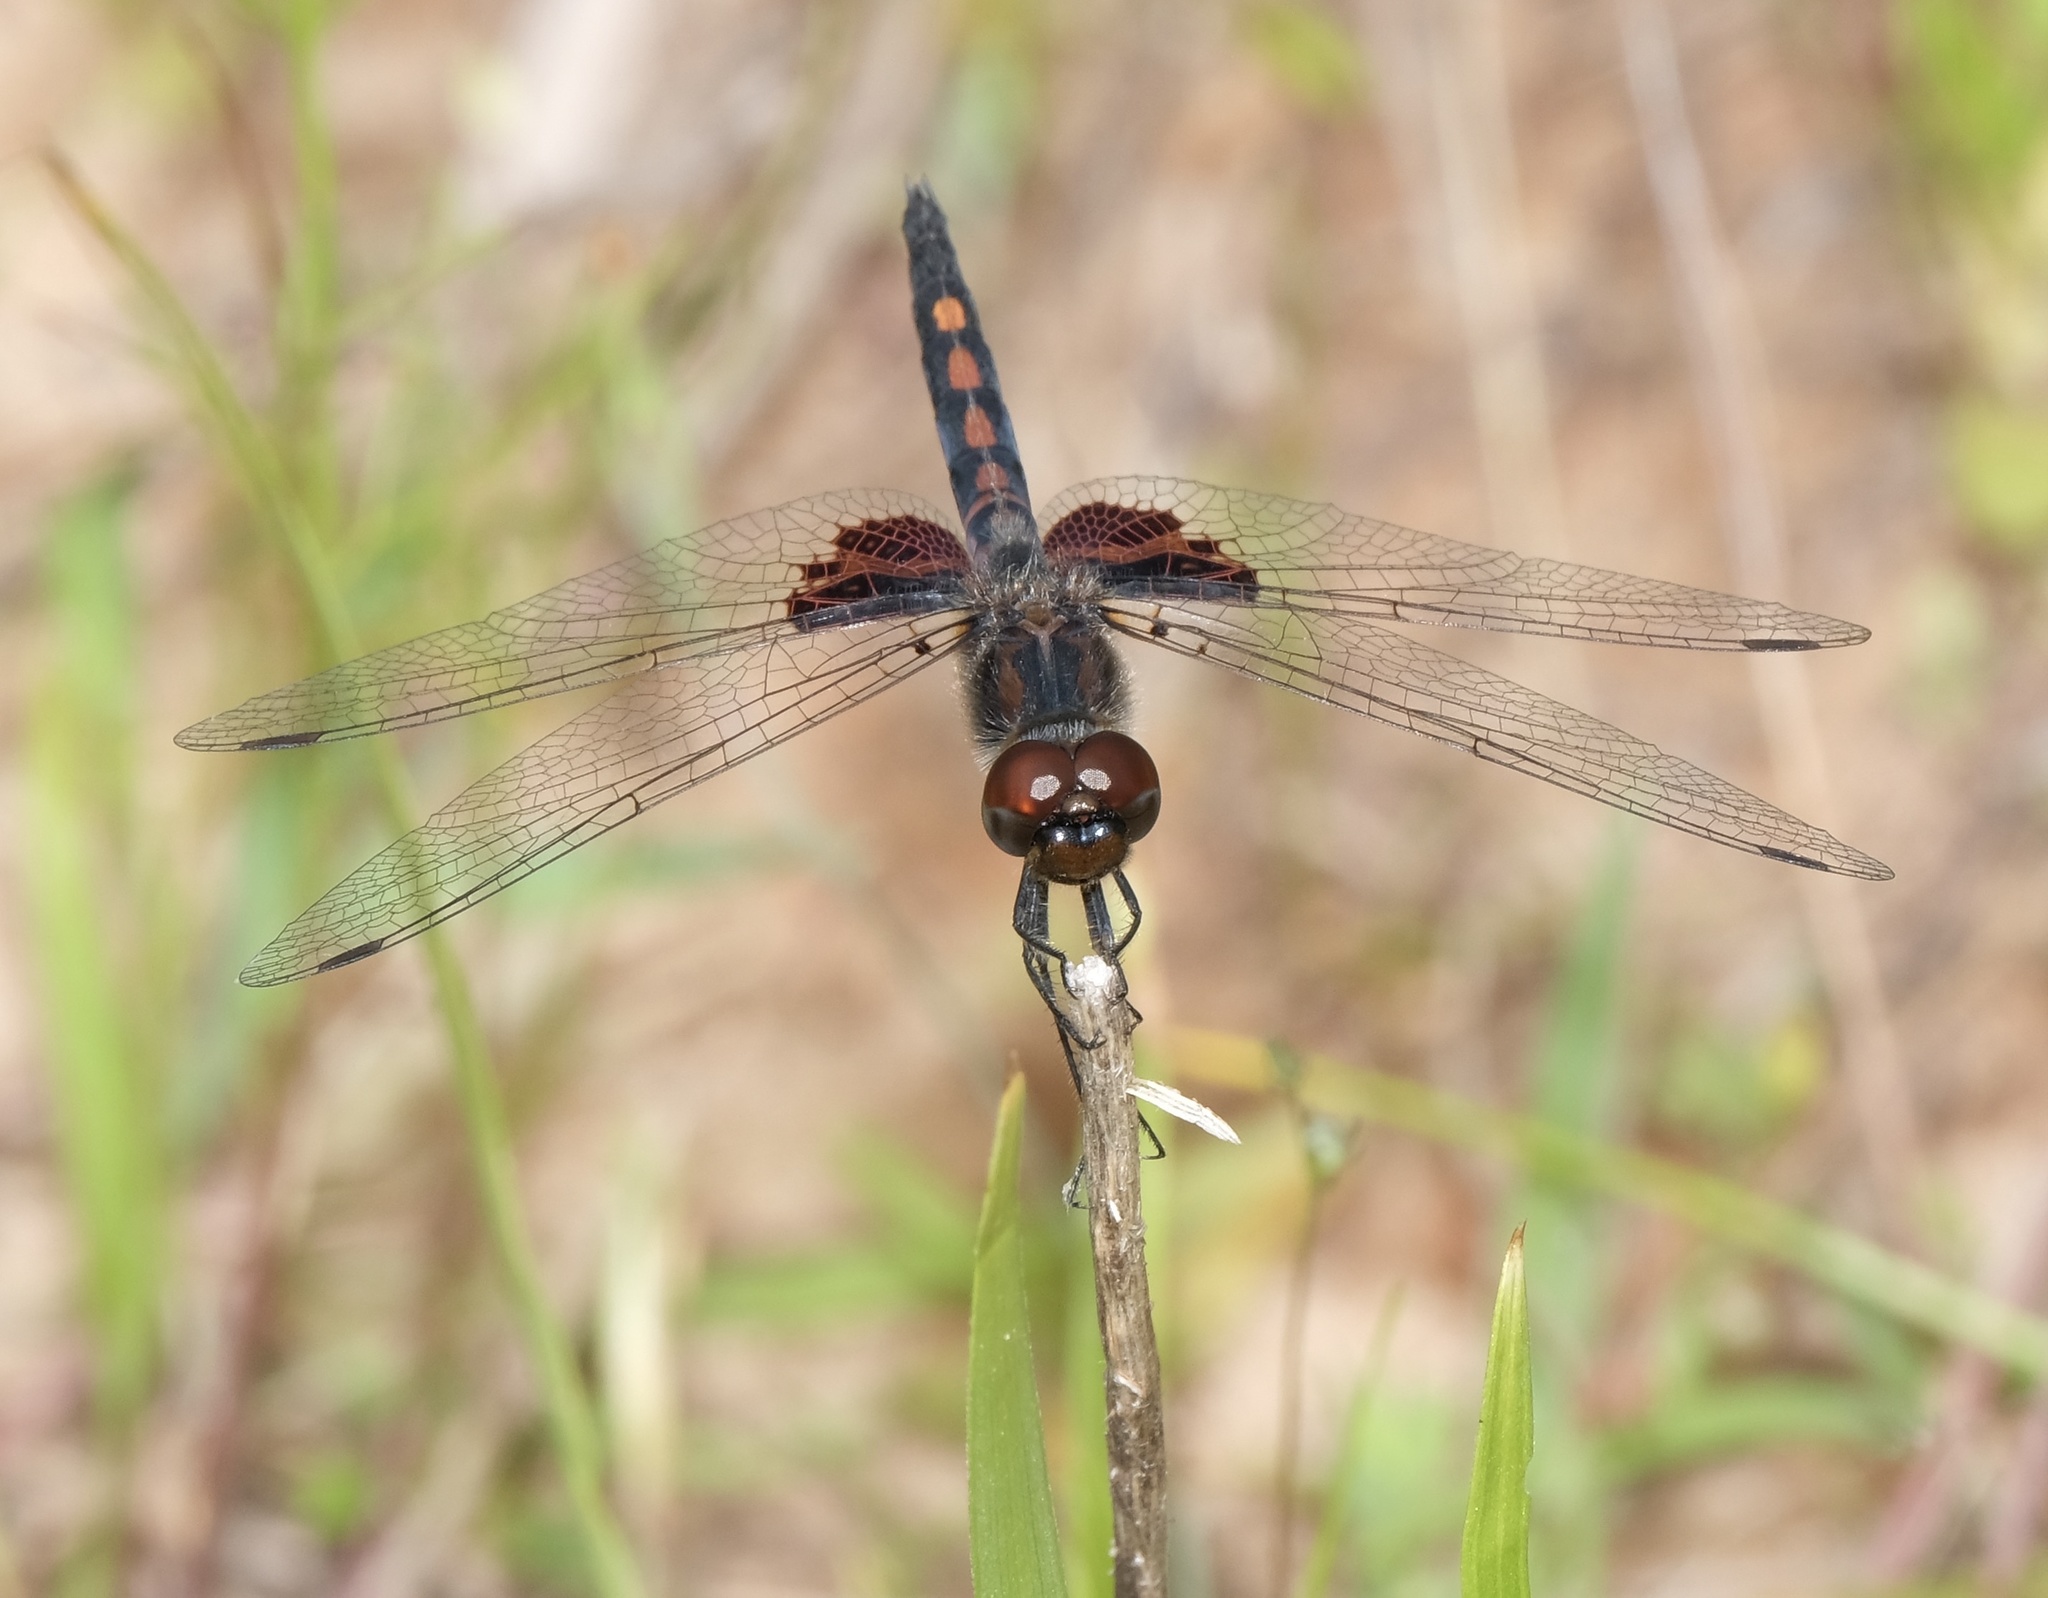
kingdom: Animalia
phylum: Arthropoda
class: Insecta
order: Odonata
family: Libellulidae
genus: Celithemis
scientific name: Celithemis ornata
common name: Ornate pennant
